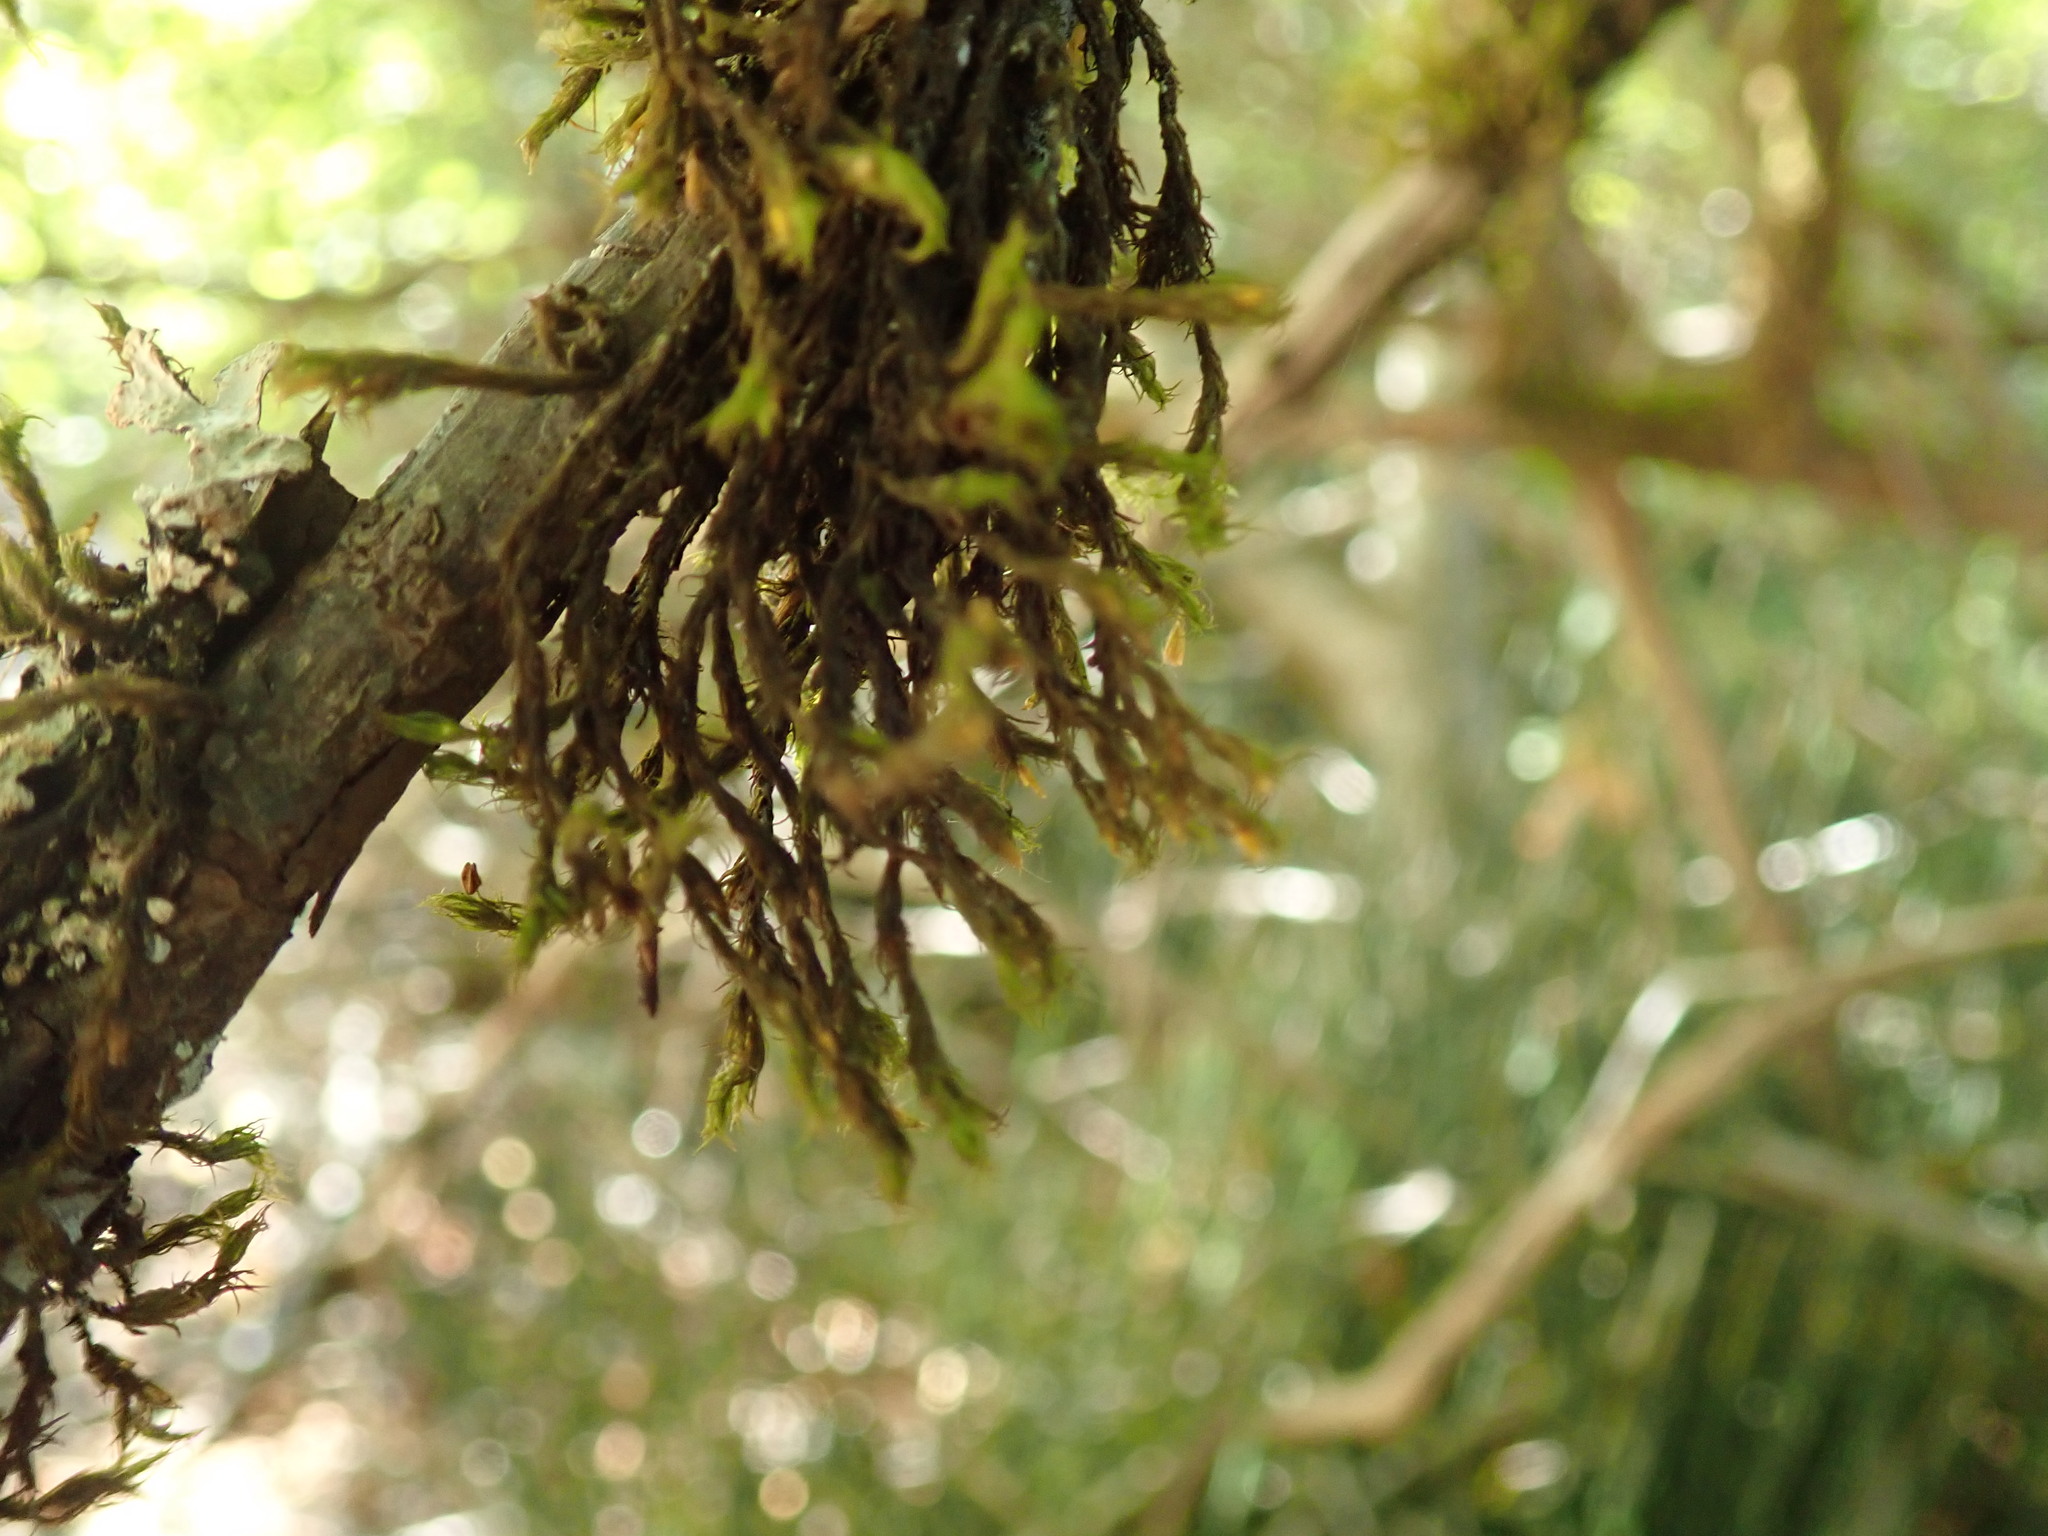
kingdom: Plantae
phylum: Bryophyta
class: Bryopsida
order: Orthotrichales
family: Orthotrichaceae
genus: Pulvigera
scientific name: Pulvigera lyellii
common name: Lyell's bristle-moss
